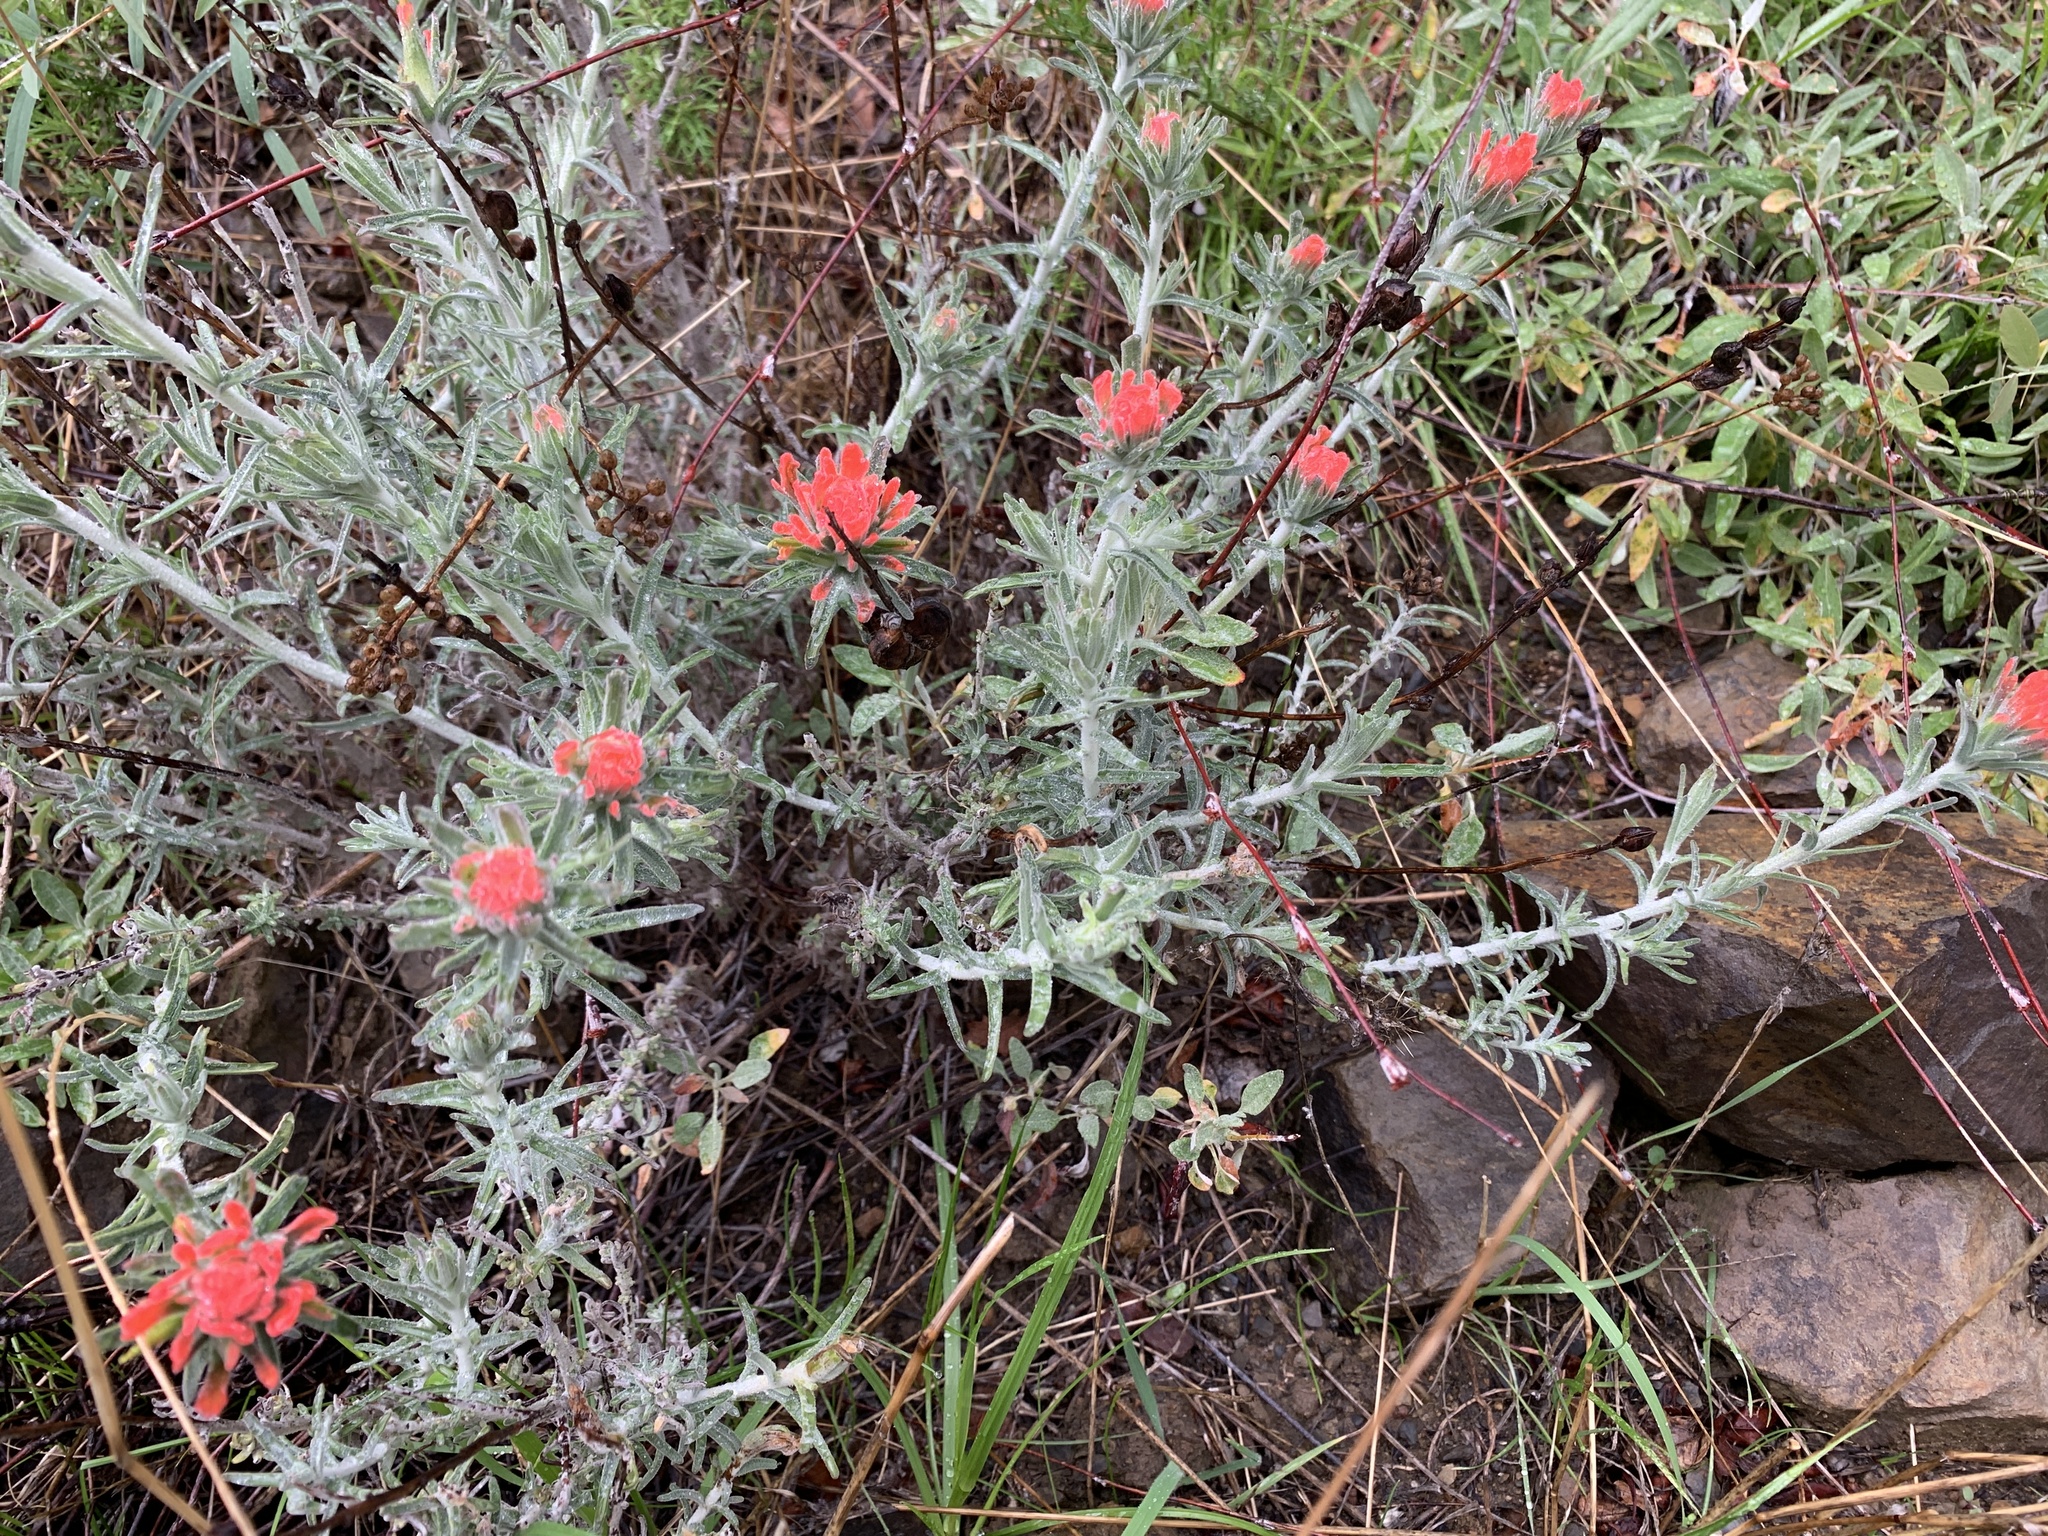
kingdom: Plantae
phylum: Tracheophyta
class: Magnoliopsida
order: Lamiales
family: Orobanchaceae
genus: Castilleja
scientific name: Castilleja foliolosa
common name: Woolly indian paintbrush
